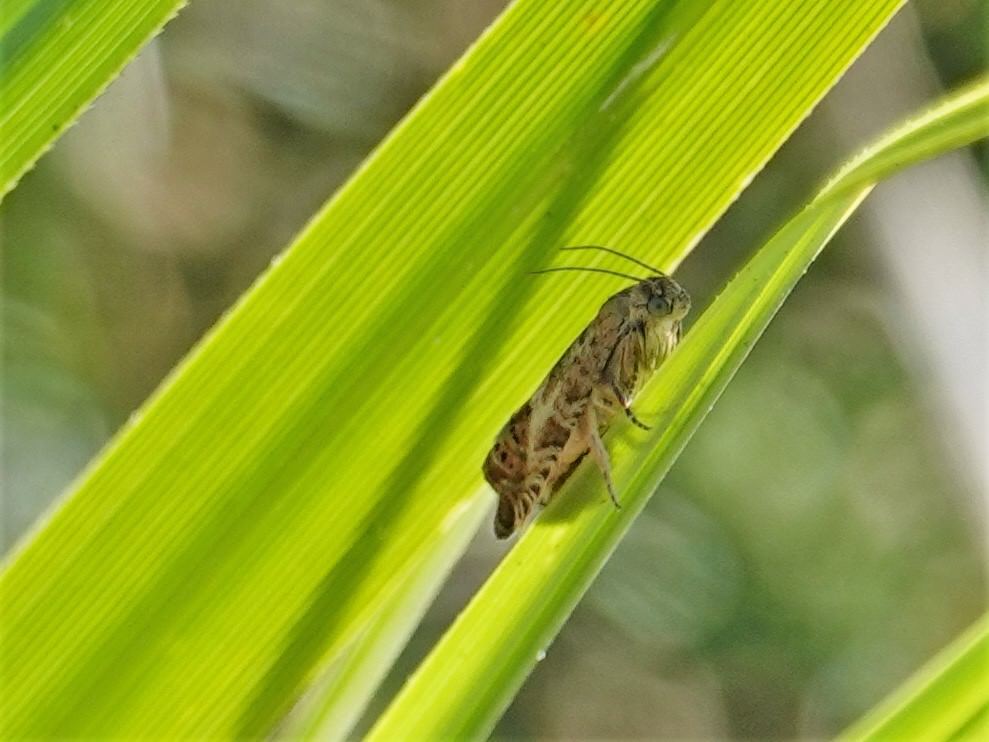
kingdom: Animalia
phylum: Arthropoda
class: Insecta
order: Lepidoptera
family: Tortricidae
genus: Cydia
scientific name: Cydia succedana
